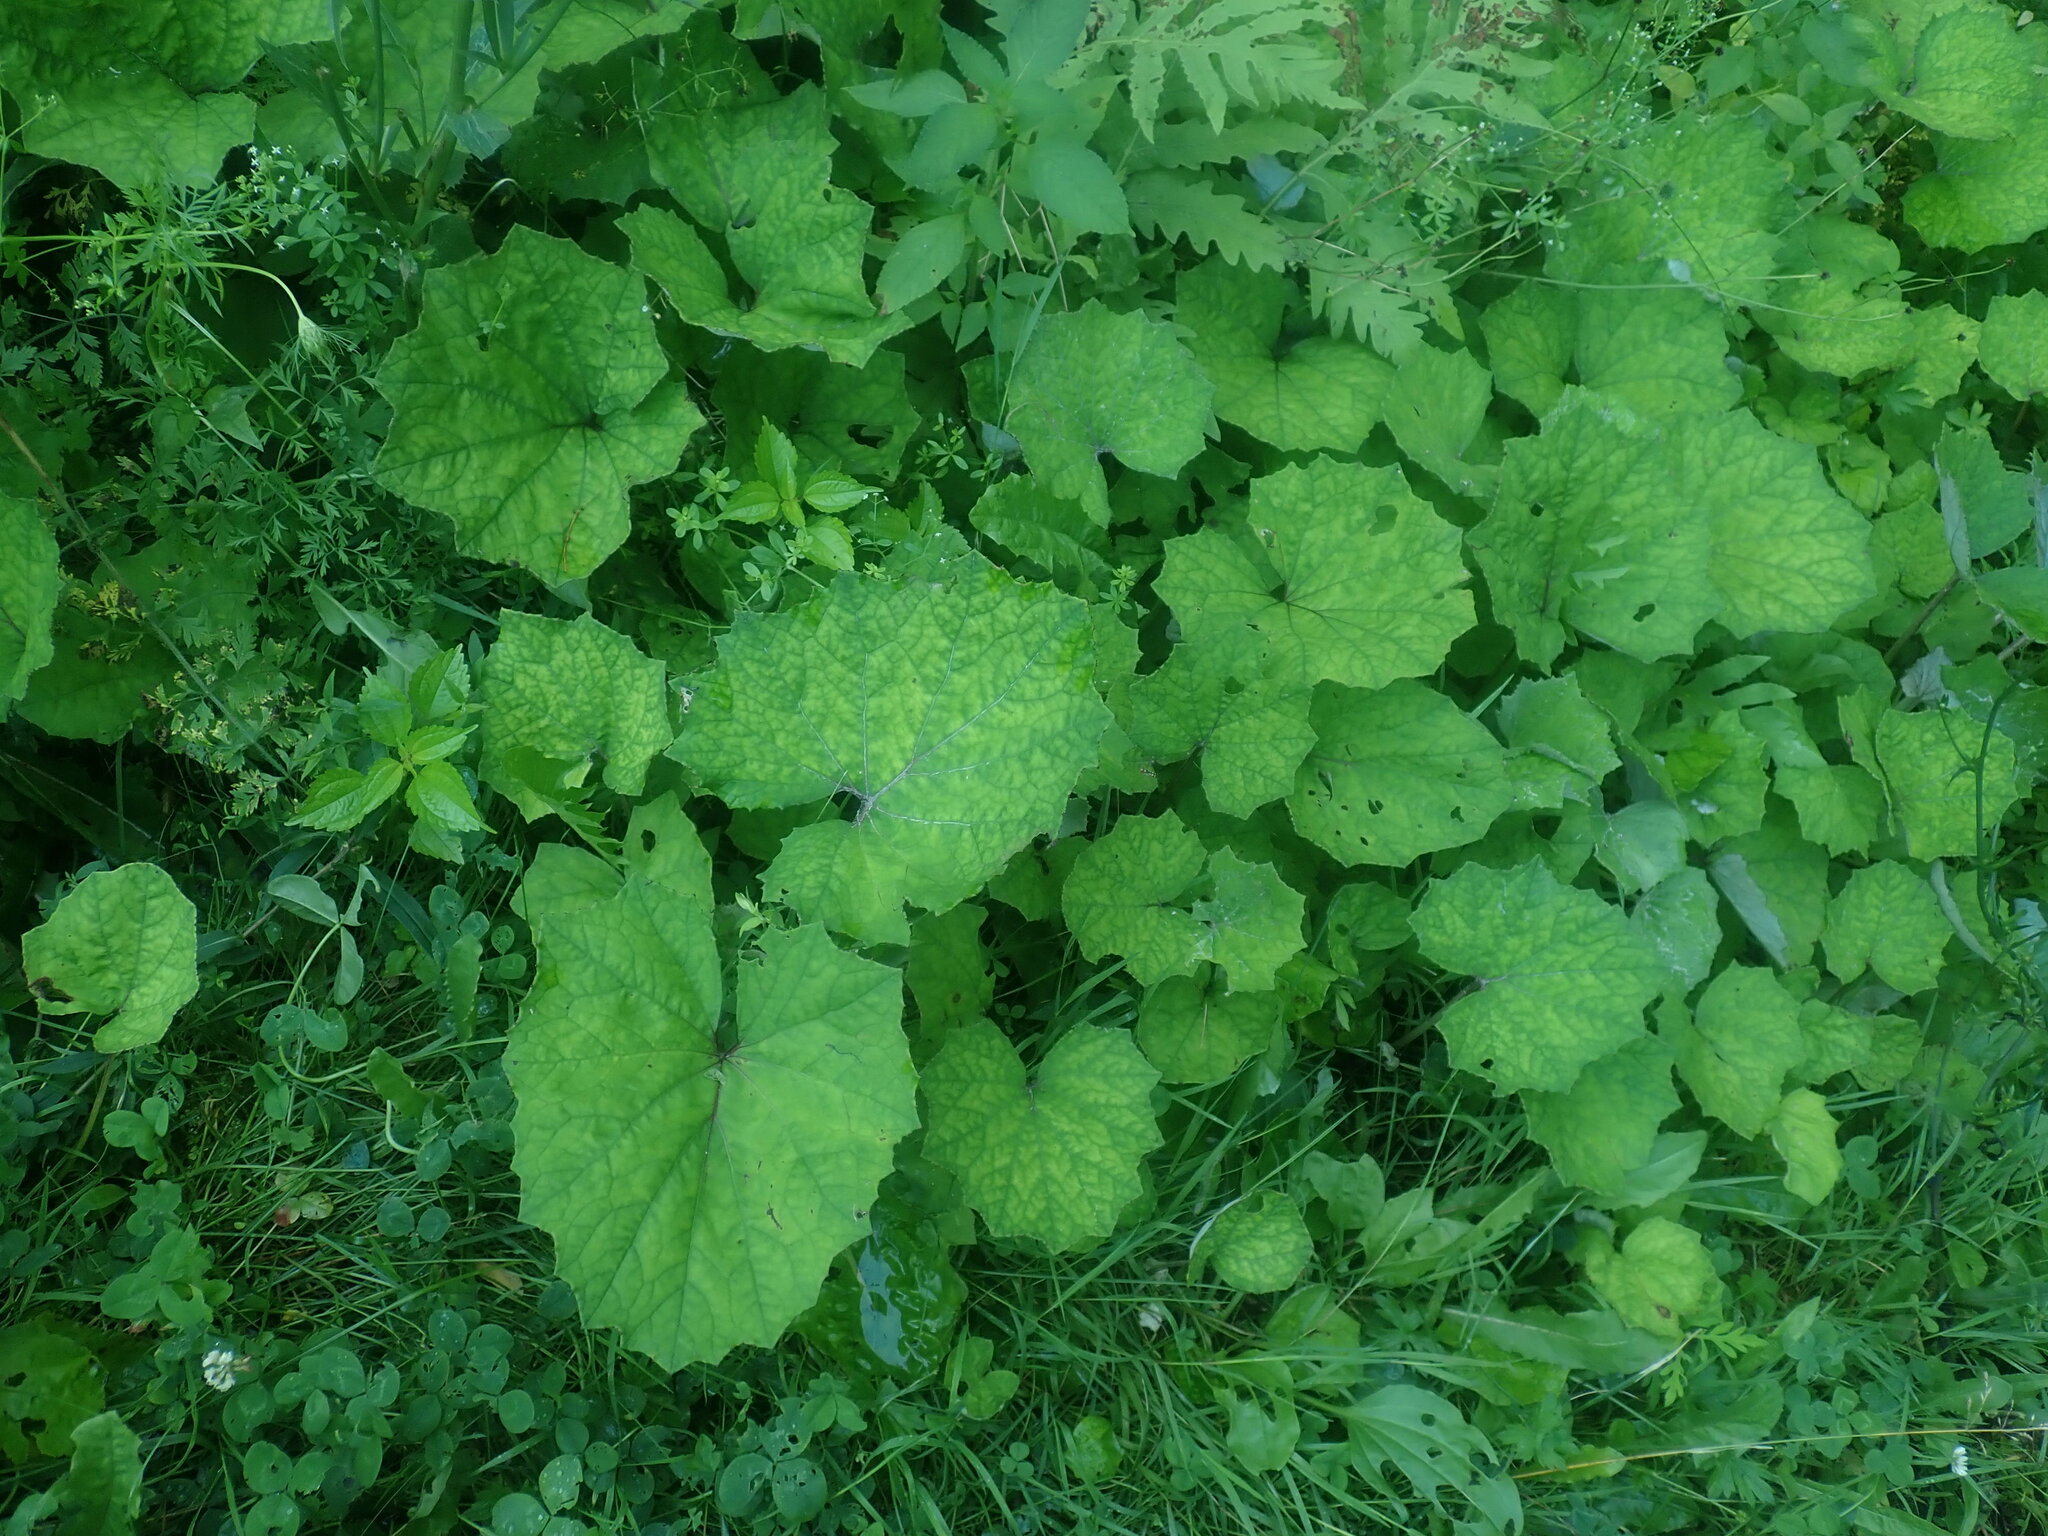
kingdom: Plantae
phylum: Tracheophyta
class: Magnoliopsida
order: Asterales
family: Asteraceae
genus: Tussilago
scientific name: Tussilago farfara
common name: Coltsfoot
